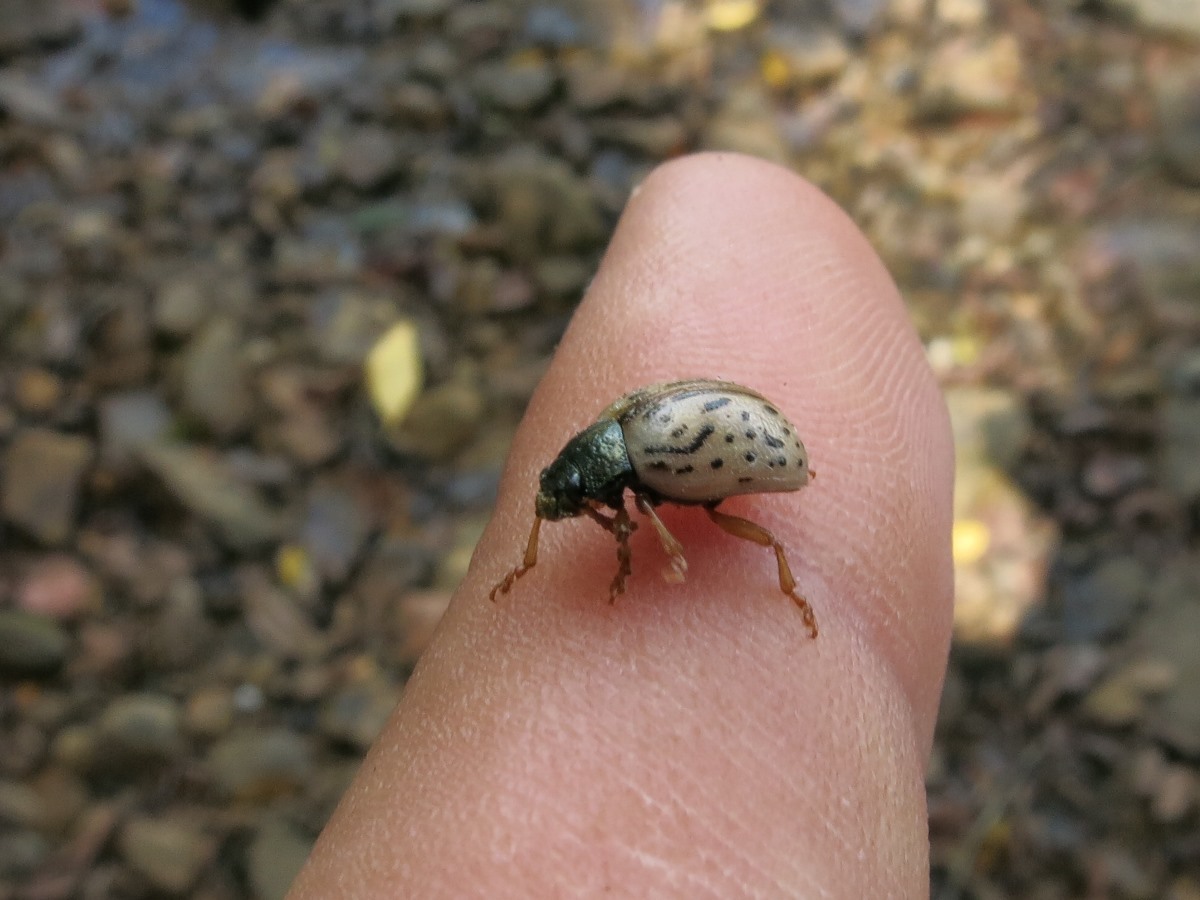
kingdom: Animalia
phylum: Arthropoda
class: Insecta
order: Coleoptera
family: Chrysomelidae
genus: Calligrapha
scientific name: Calligrapha philadelphica
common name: Dogwood leaf beetle
